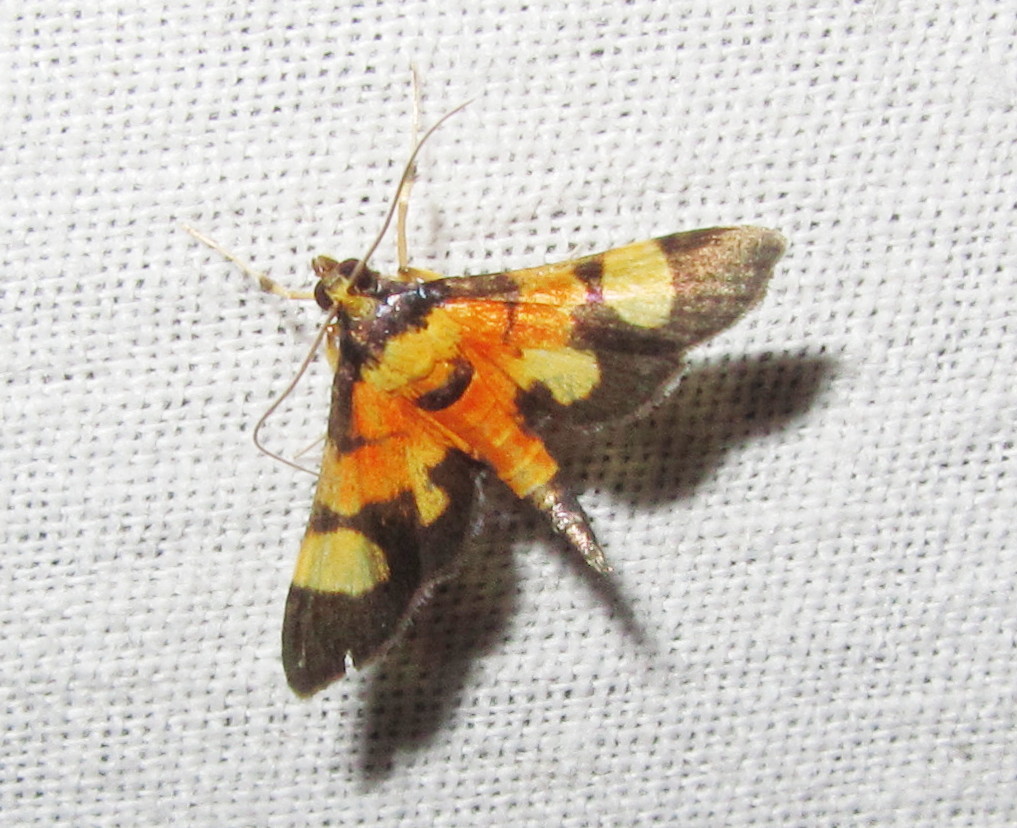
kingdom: Animalia
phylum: Arthropoda
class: Insecta
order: Lepidoptera
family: Crambidae
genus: Aethaloessa
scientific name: Aethaloessa calidalis
